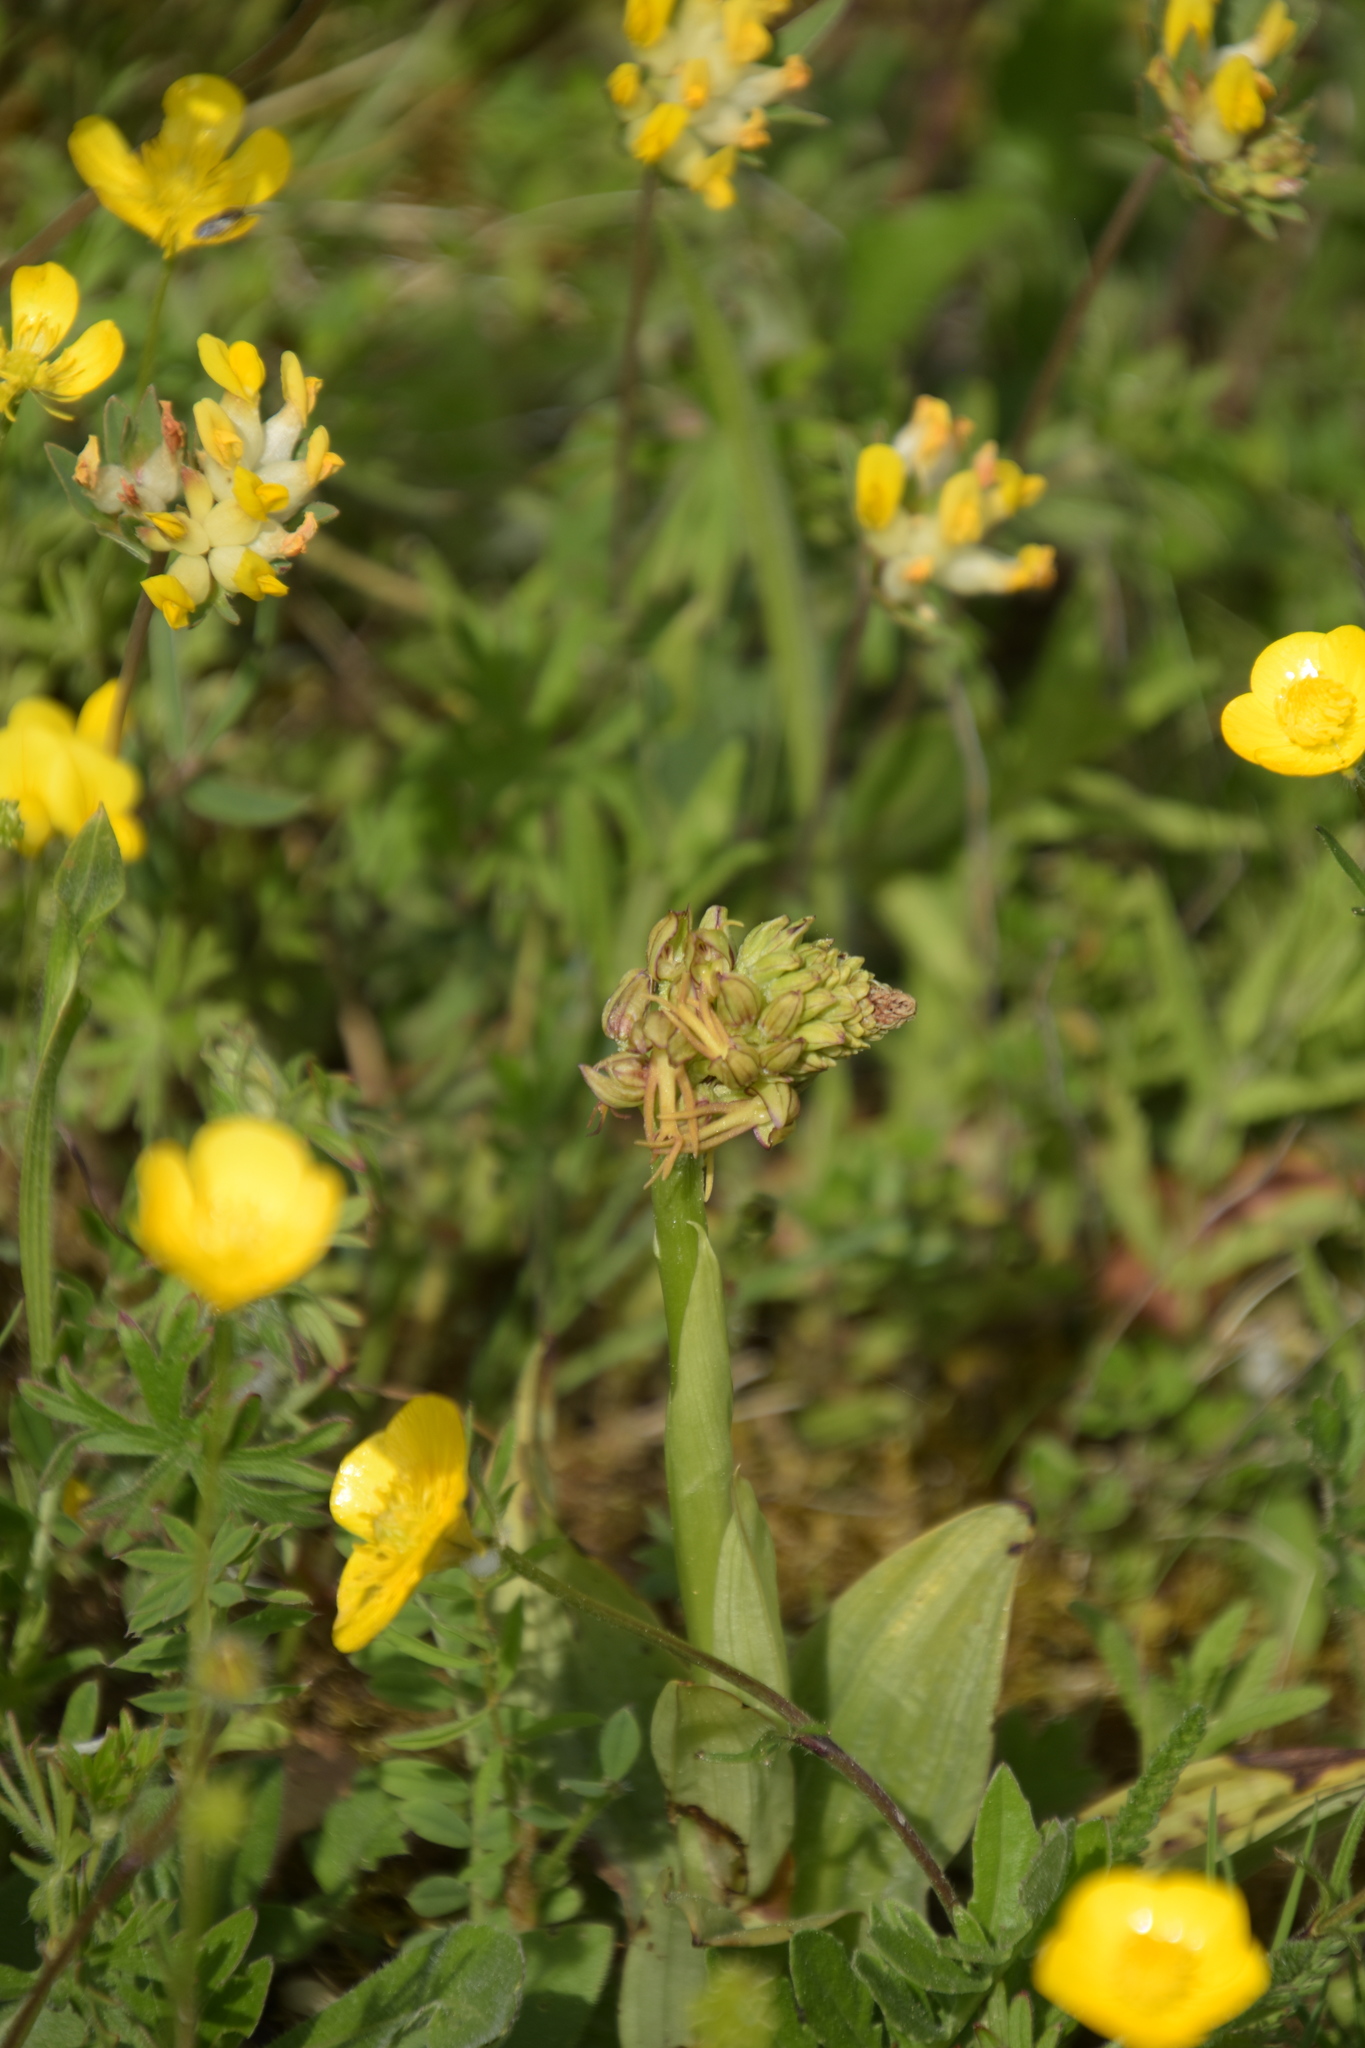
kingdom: Plantae
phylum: Tracheophyta
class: Liliopsida
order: Asparagales
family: Orchidaceae
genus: Orchis
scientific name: Orchis anthropophora
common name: Man orchid
